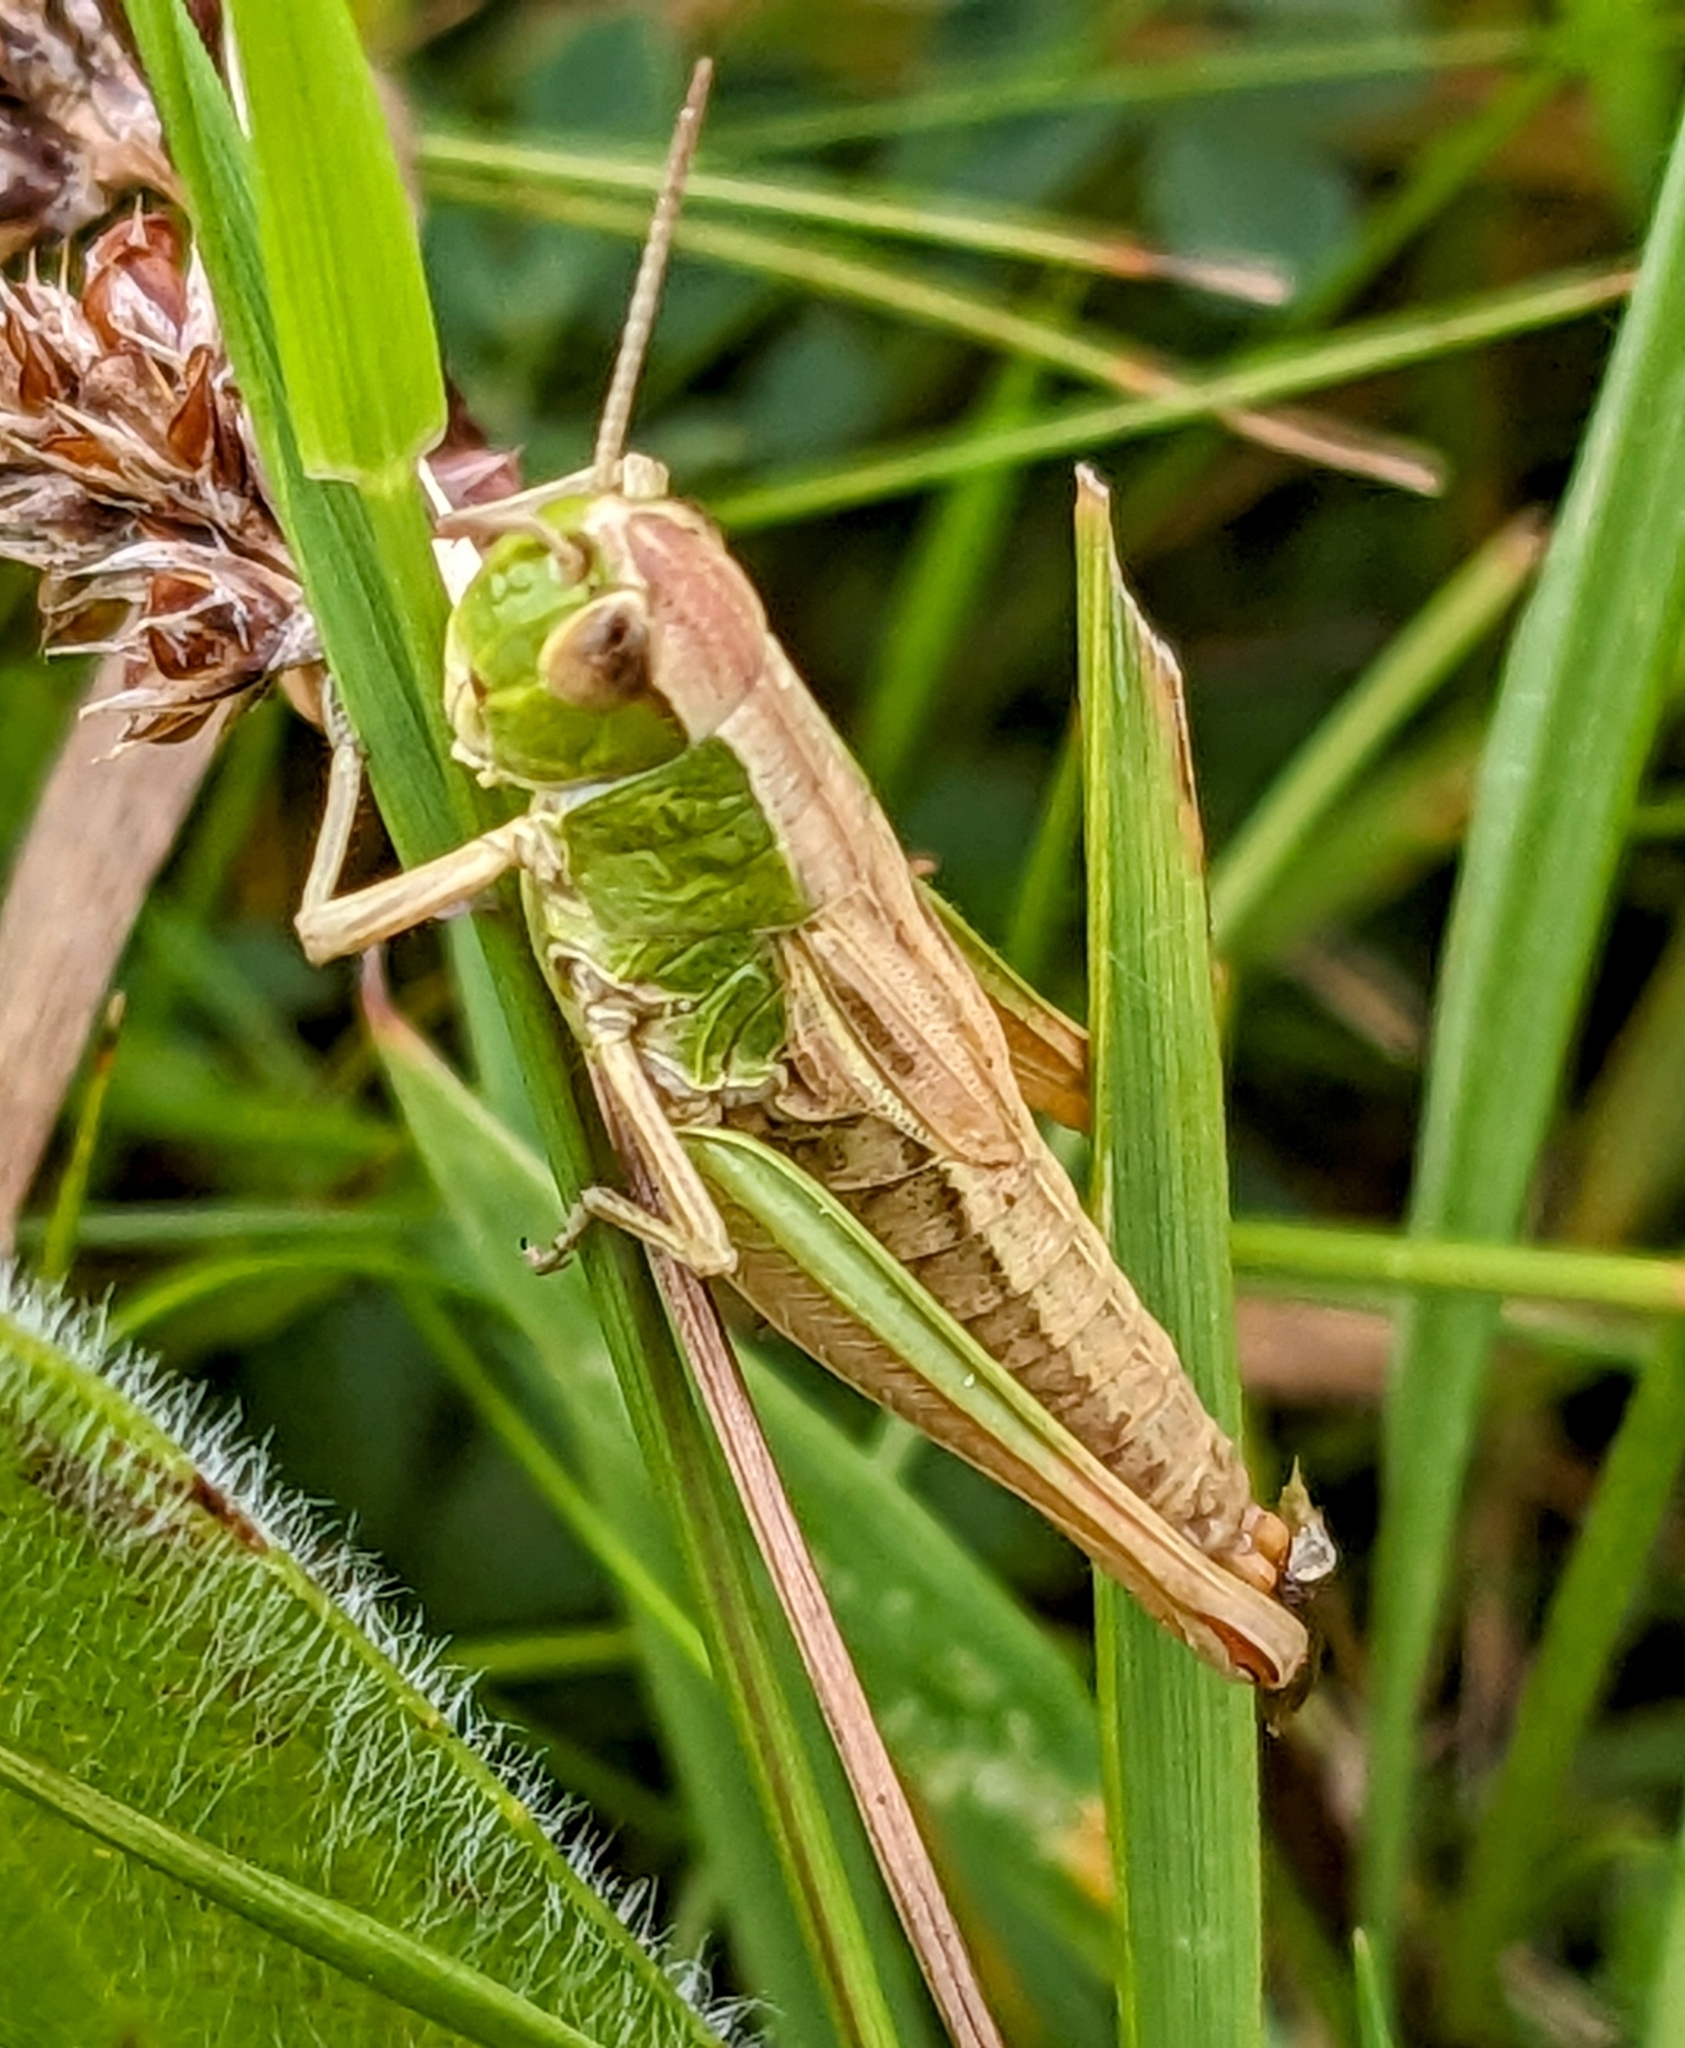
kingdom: Animalia
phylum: Arthropoda
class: Insecta
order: Orthoptera
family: Acrididae
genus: Pseudochorthippus
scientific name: Pseudochorthippus parallelus
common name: Meadow grasshopper
